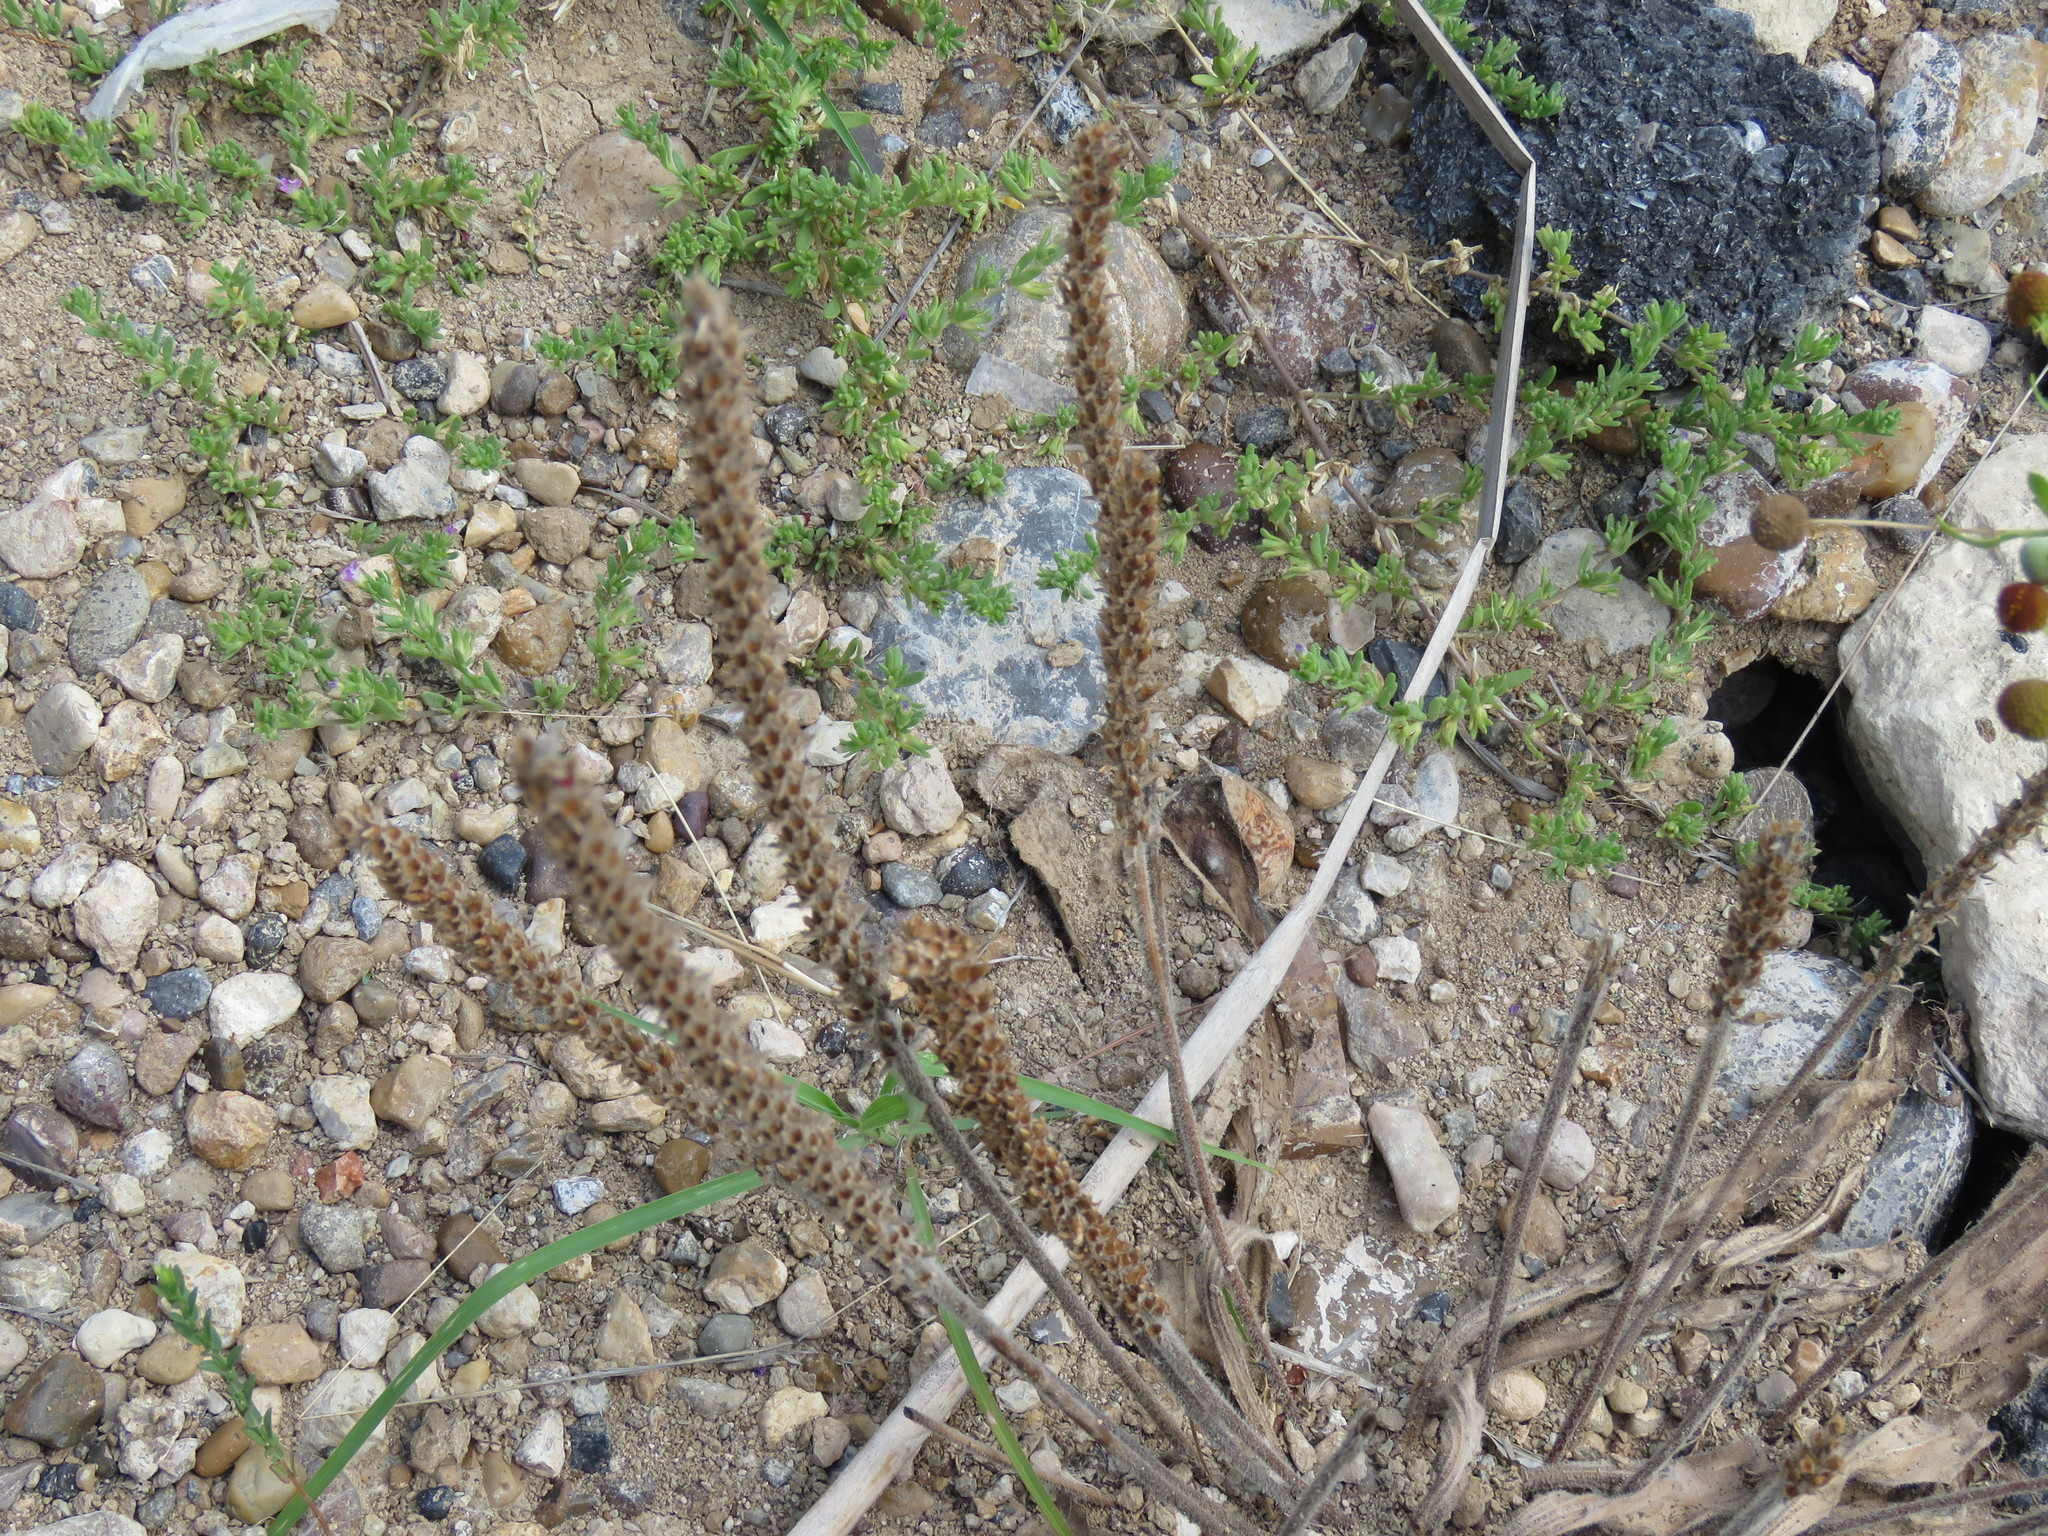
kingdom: Plantae
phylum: Tracheophyta
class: Magnoliopsida
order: Lamiales
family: Plantaginaceae
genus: Plantago
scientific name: Plantago rhodosperma
